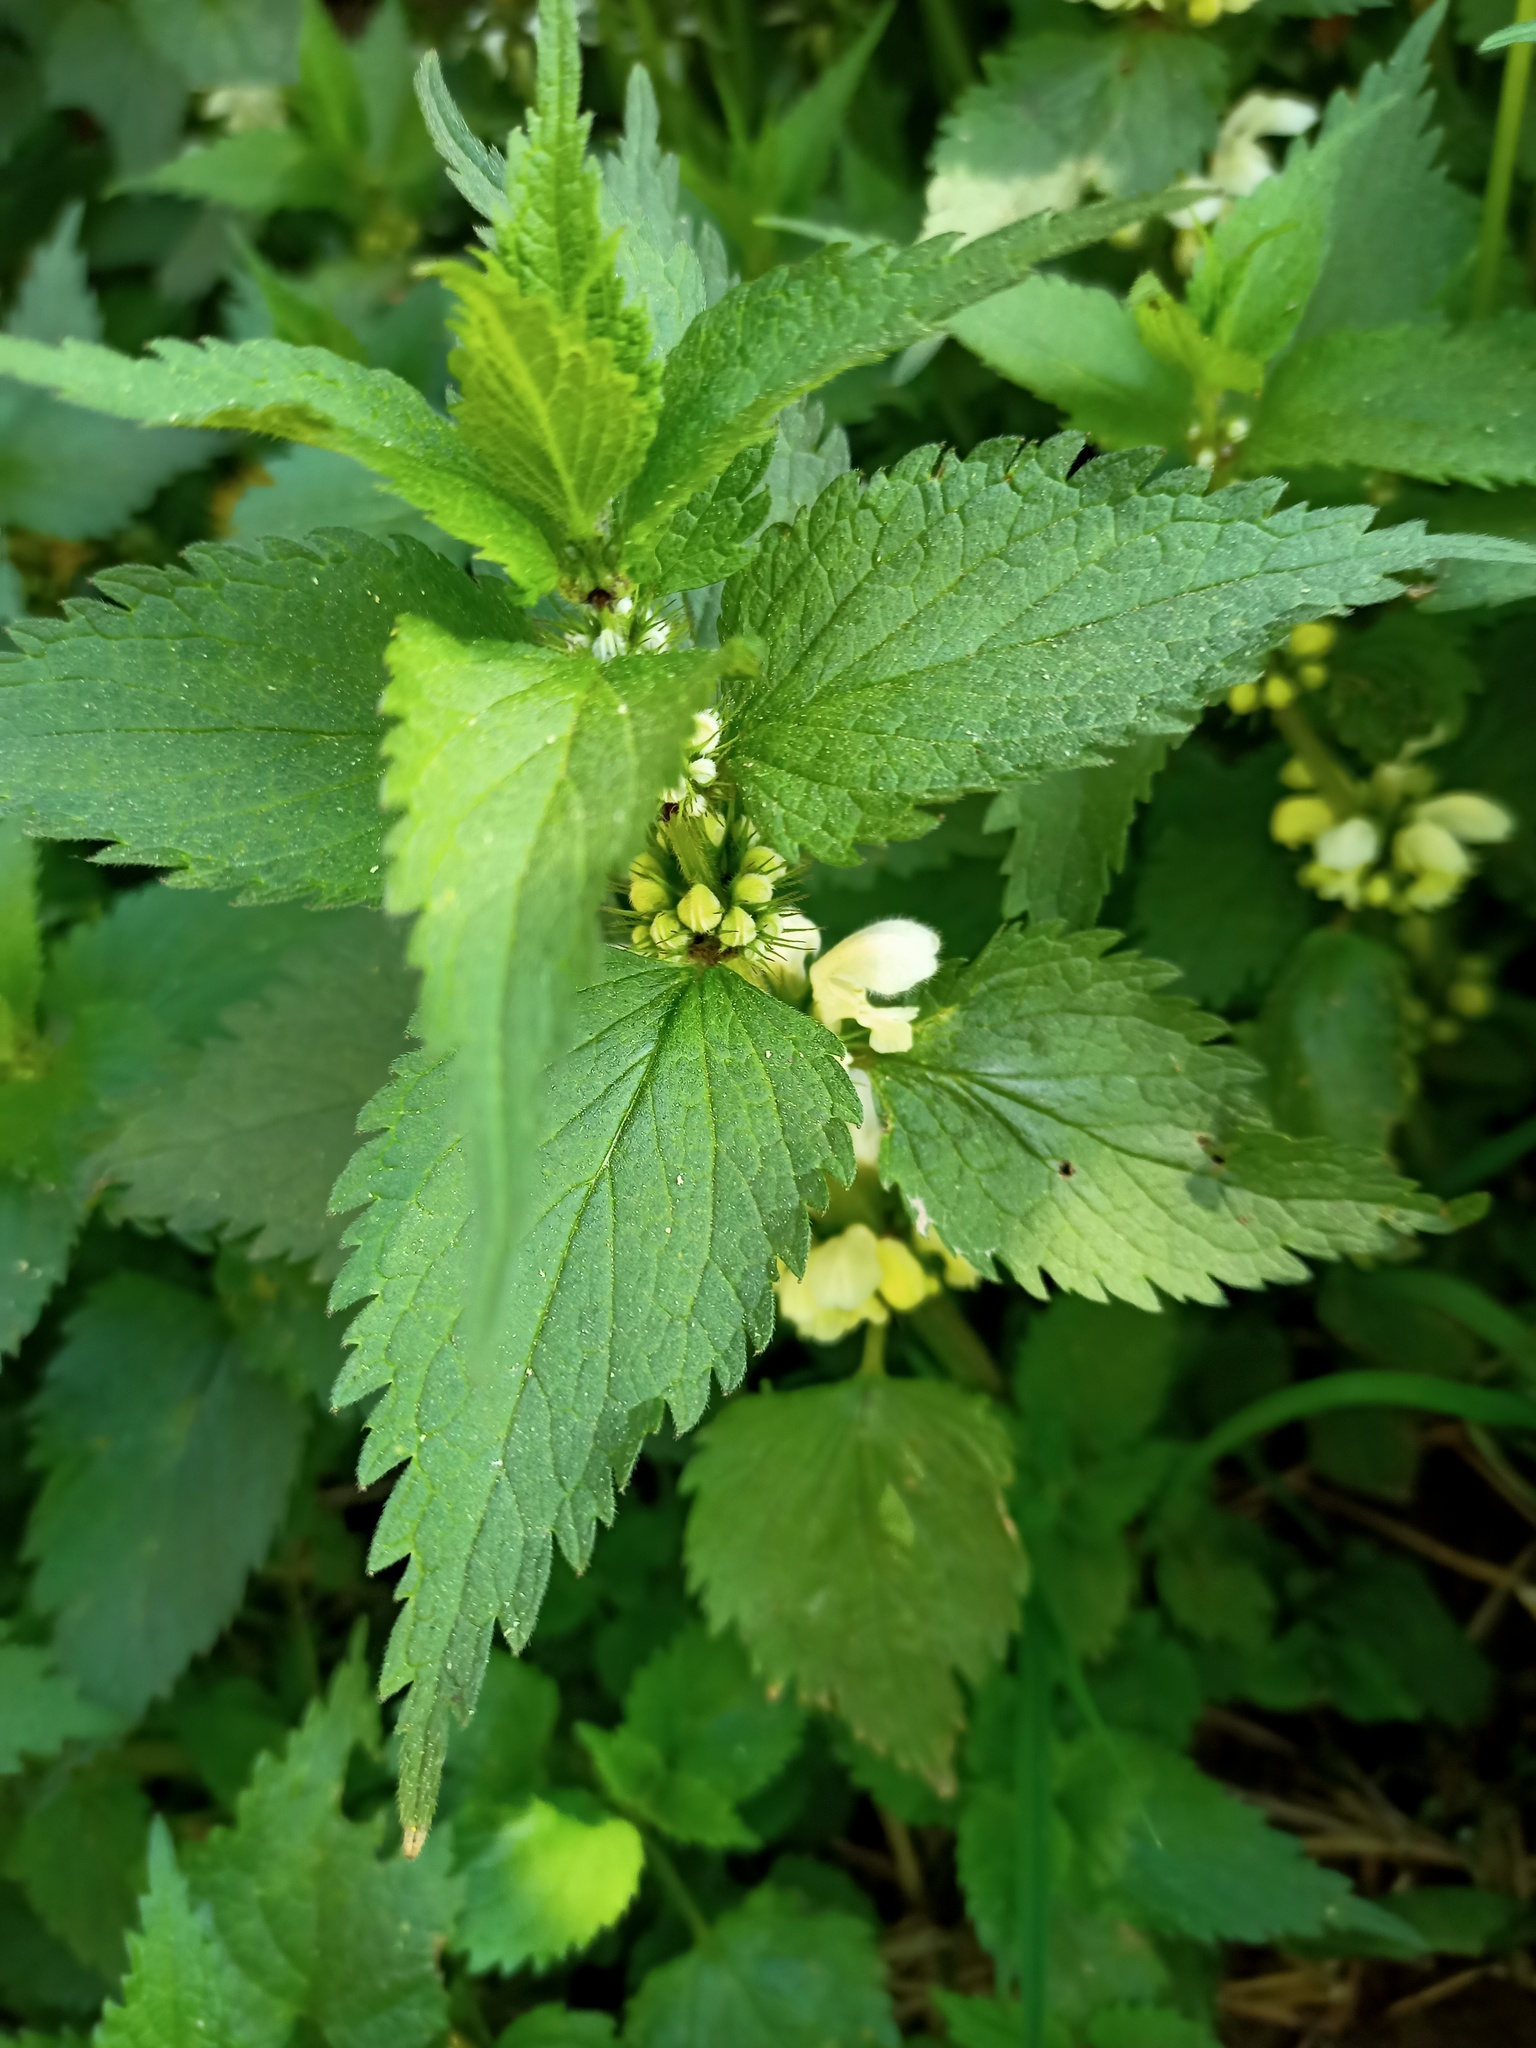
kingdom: Plantae
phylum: Tracheophyta
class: Magnoliopsida
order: Lamiales
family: Lamiaceae
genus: Lamium
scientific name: Lamium album
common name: White dead-nettle
